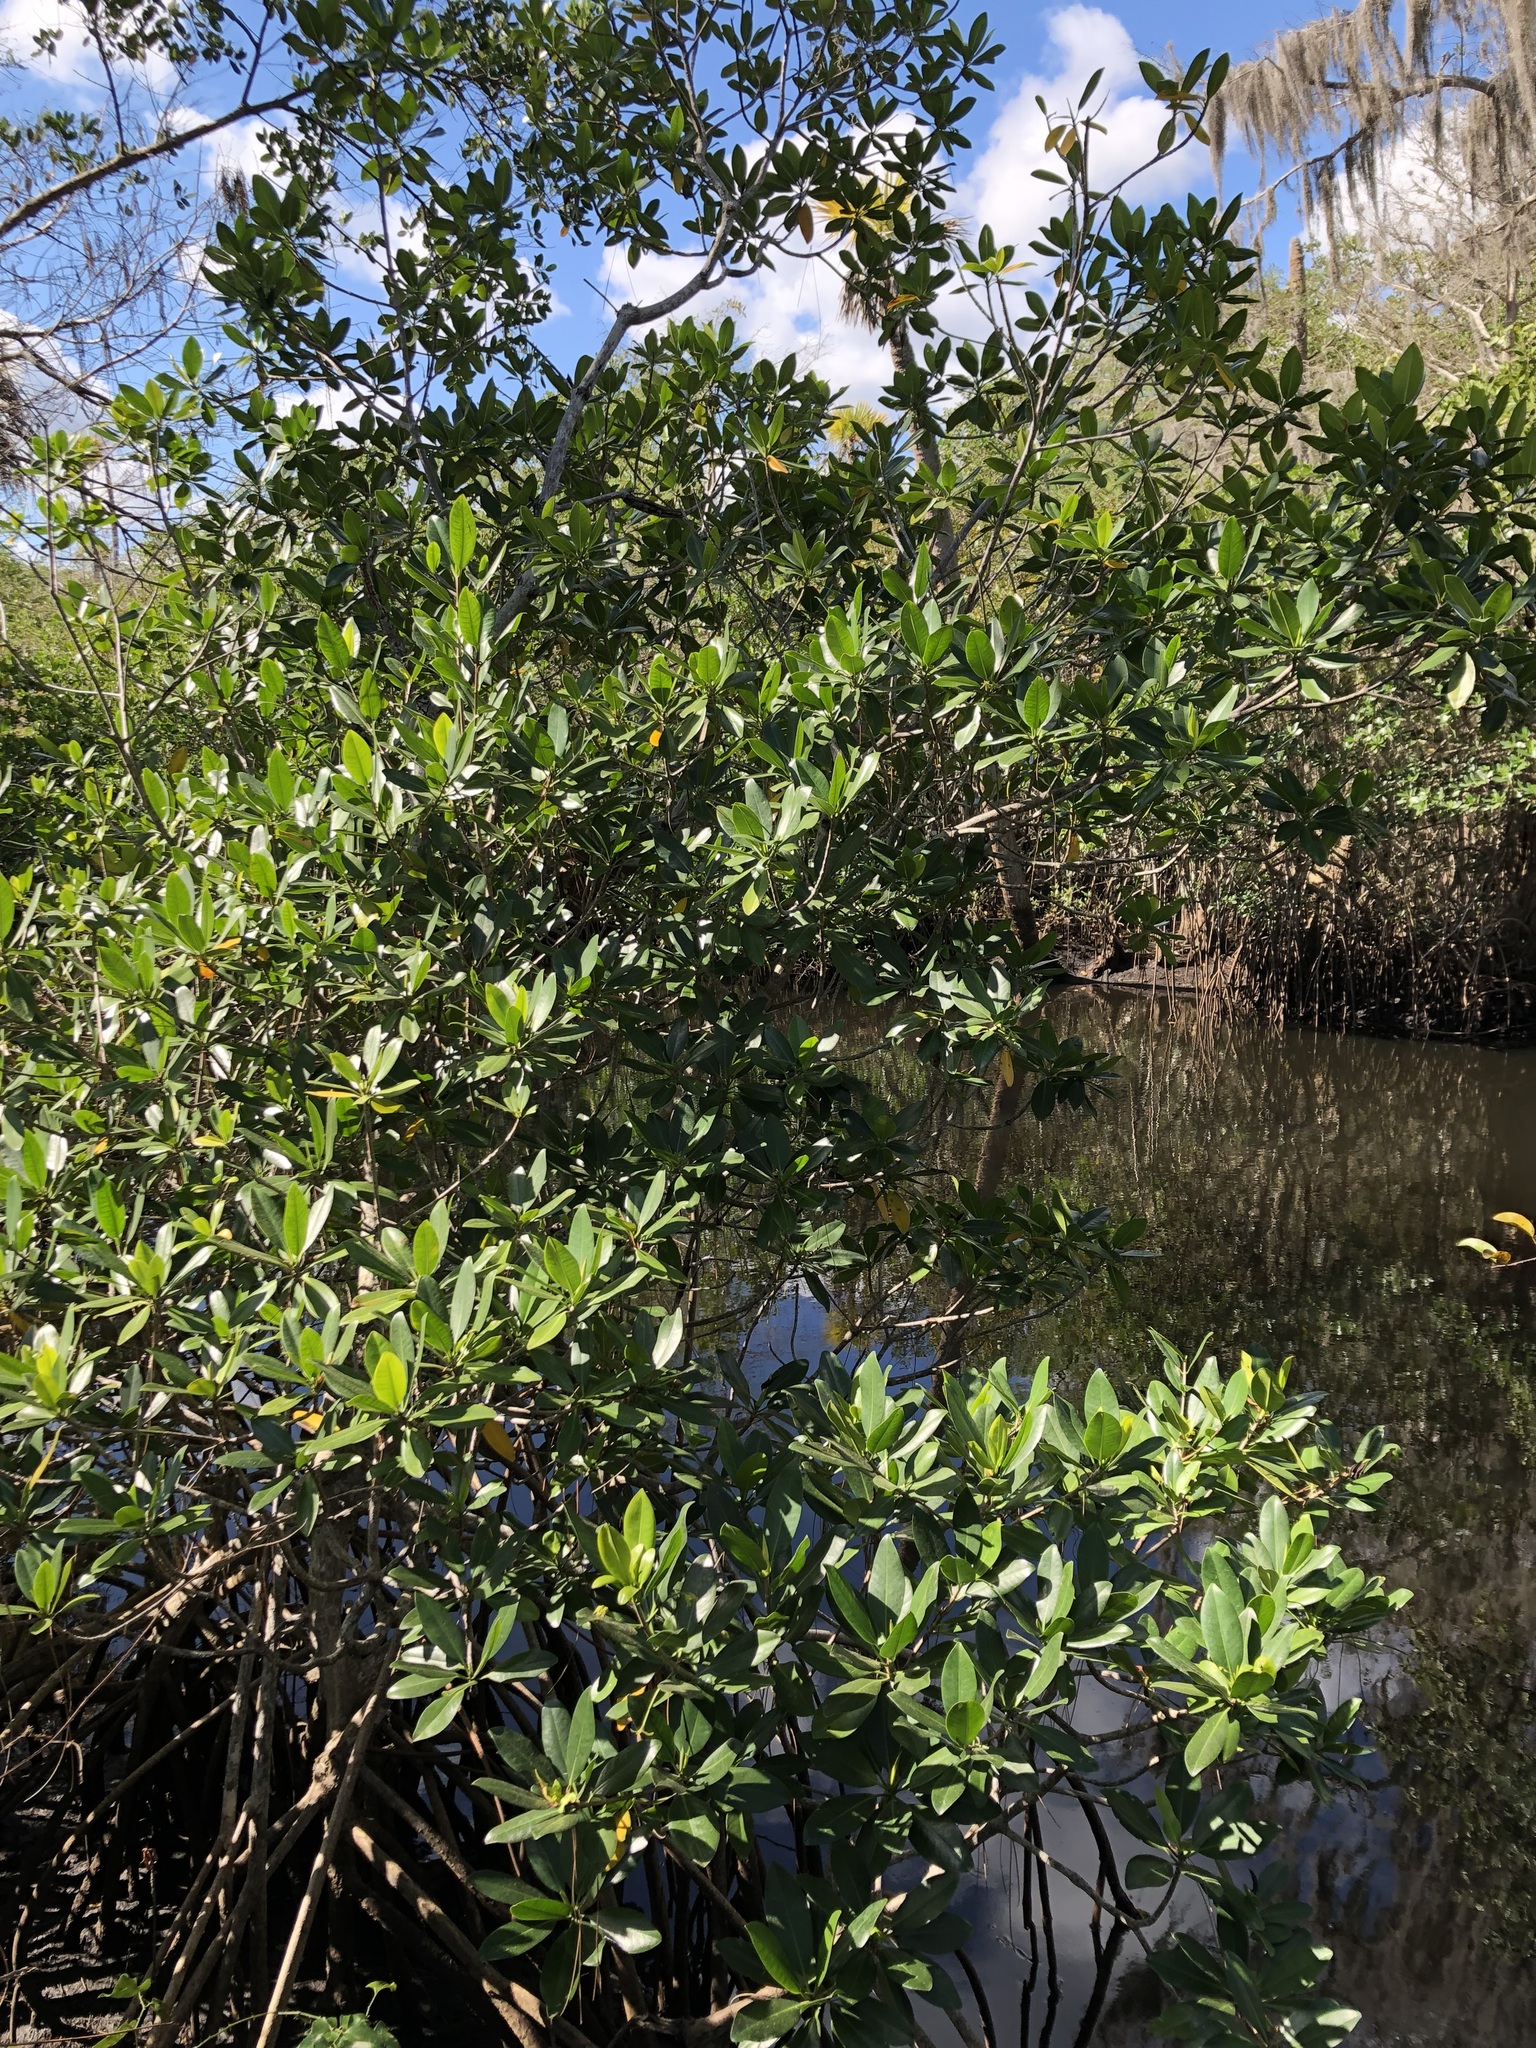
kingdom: Plantae
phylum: Tracheophyta
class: Magnoliopsida
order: Malpighiales
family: Rhizophoraceae
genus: Rhizophora
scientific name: Rhizophora mangle
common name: Red mangrove
